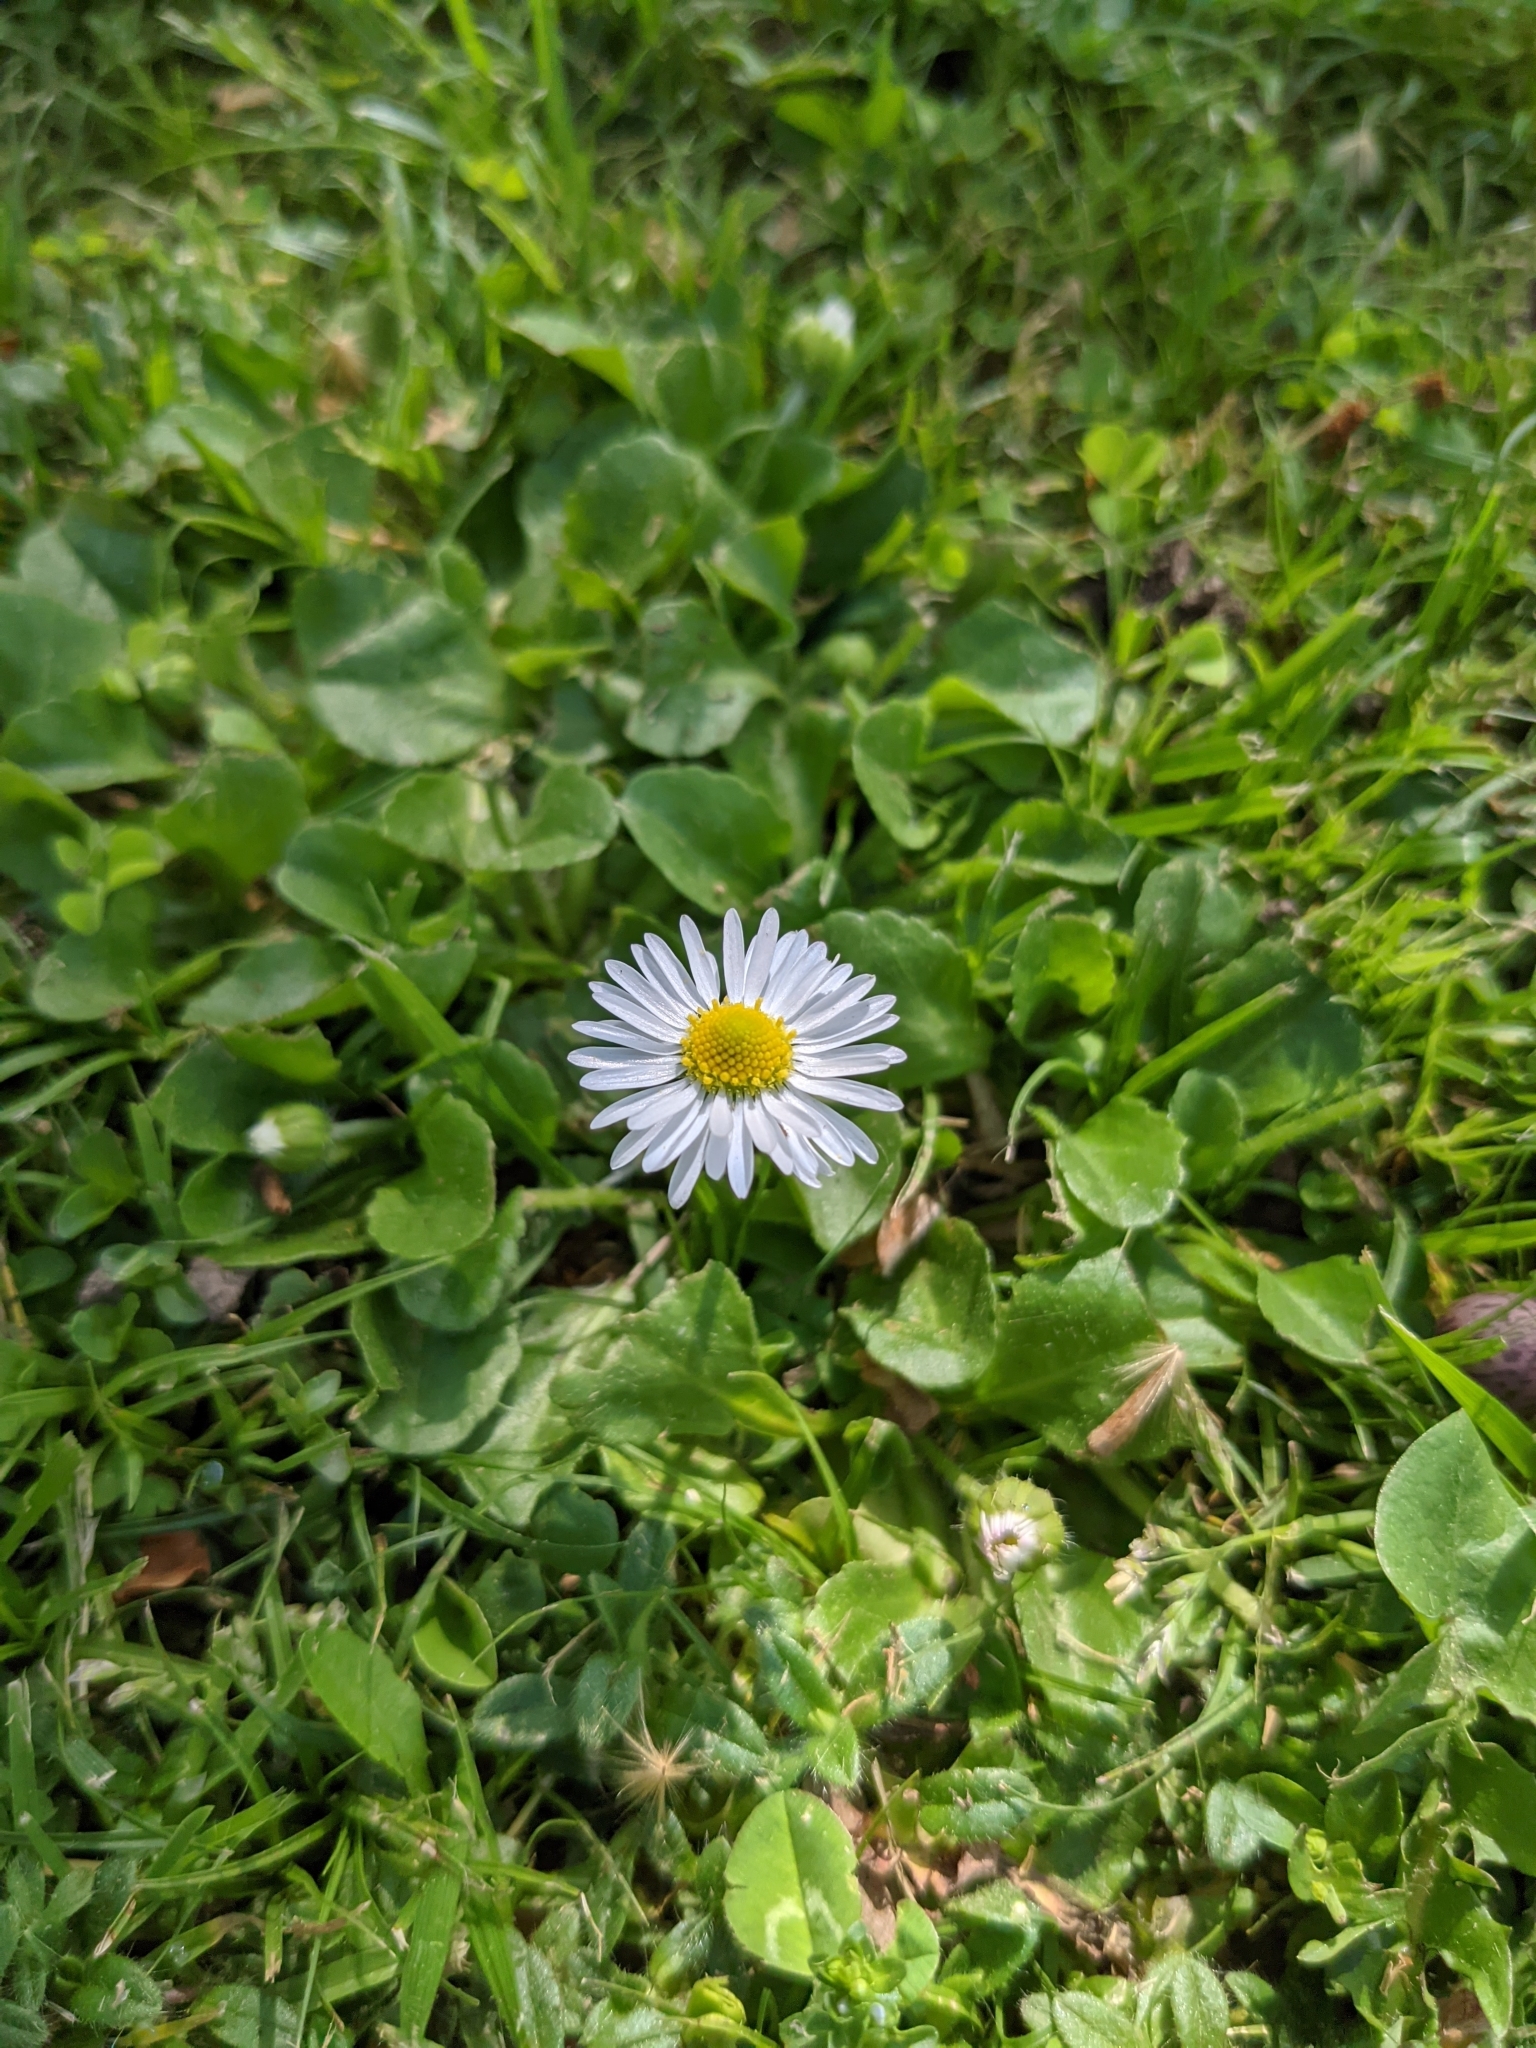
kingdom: Plantae
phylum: Tracheophyta
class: Magnoliopsida
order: Asterales
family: Asteraceae
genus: Bellis
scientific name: Bellis perennis
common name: Lawndaisy
